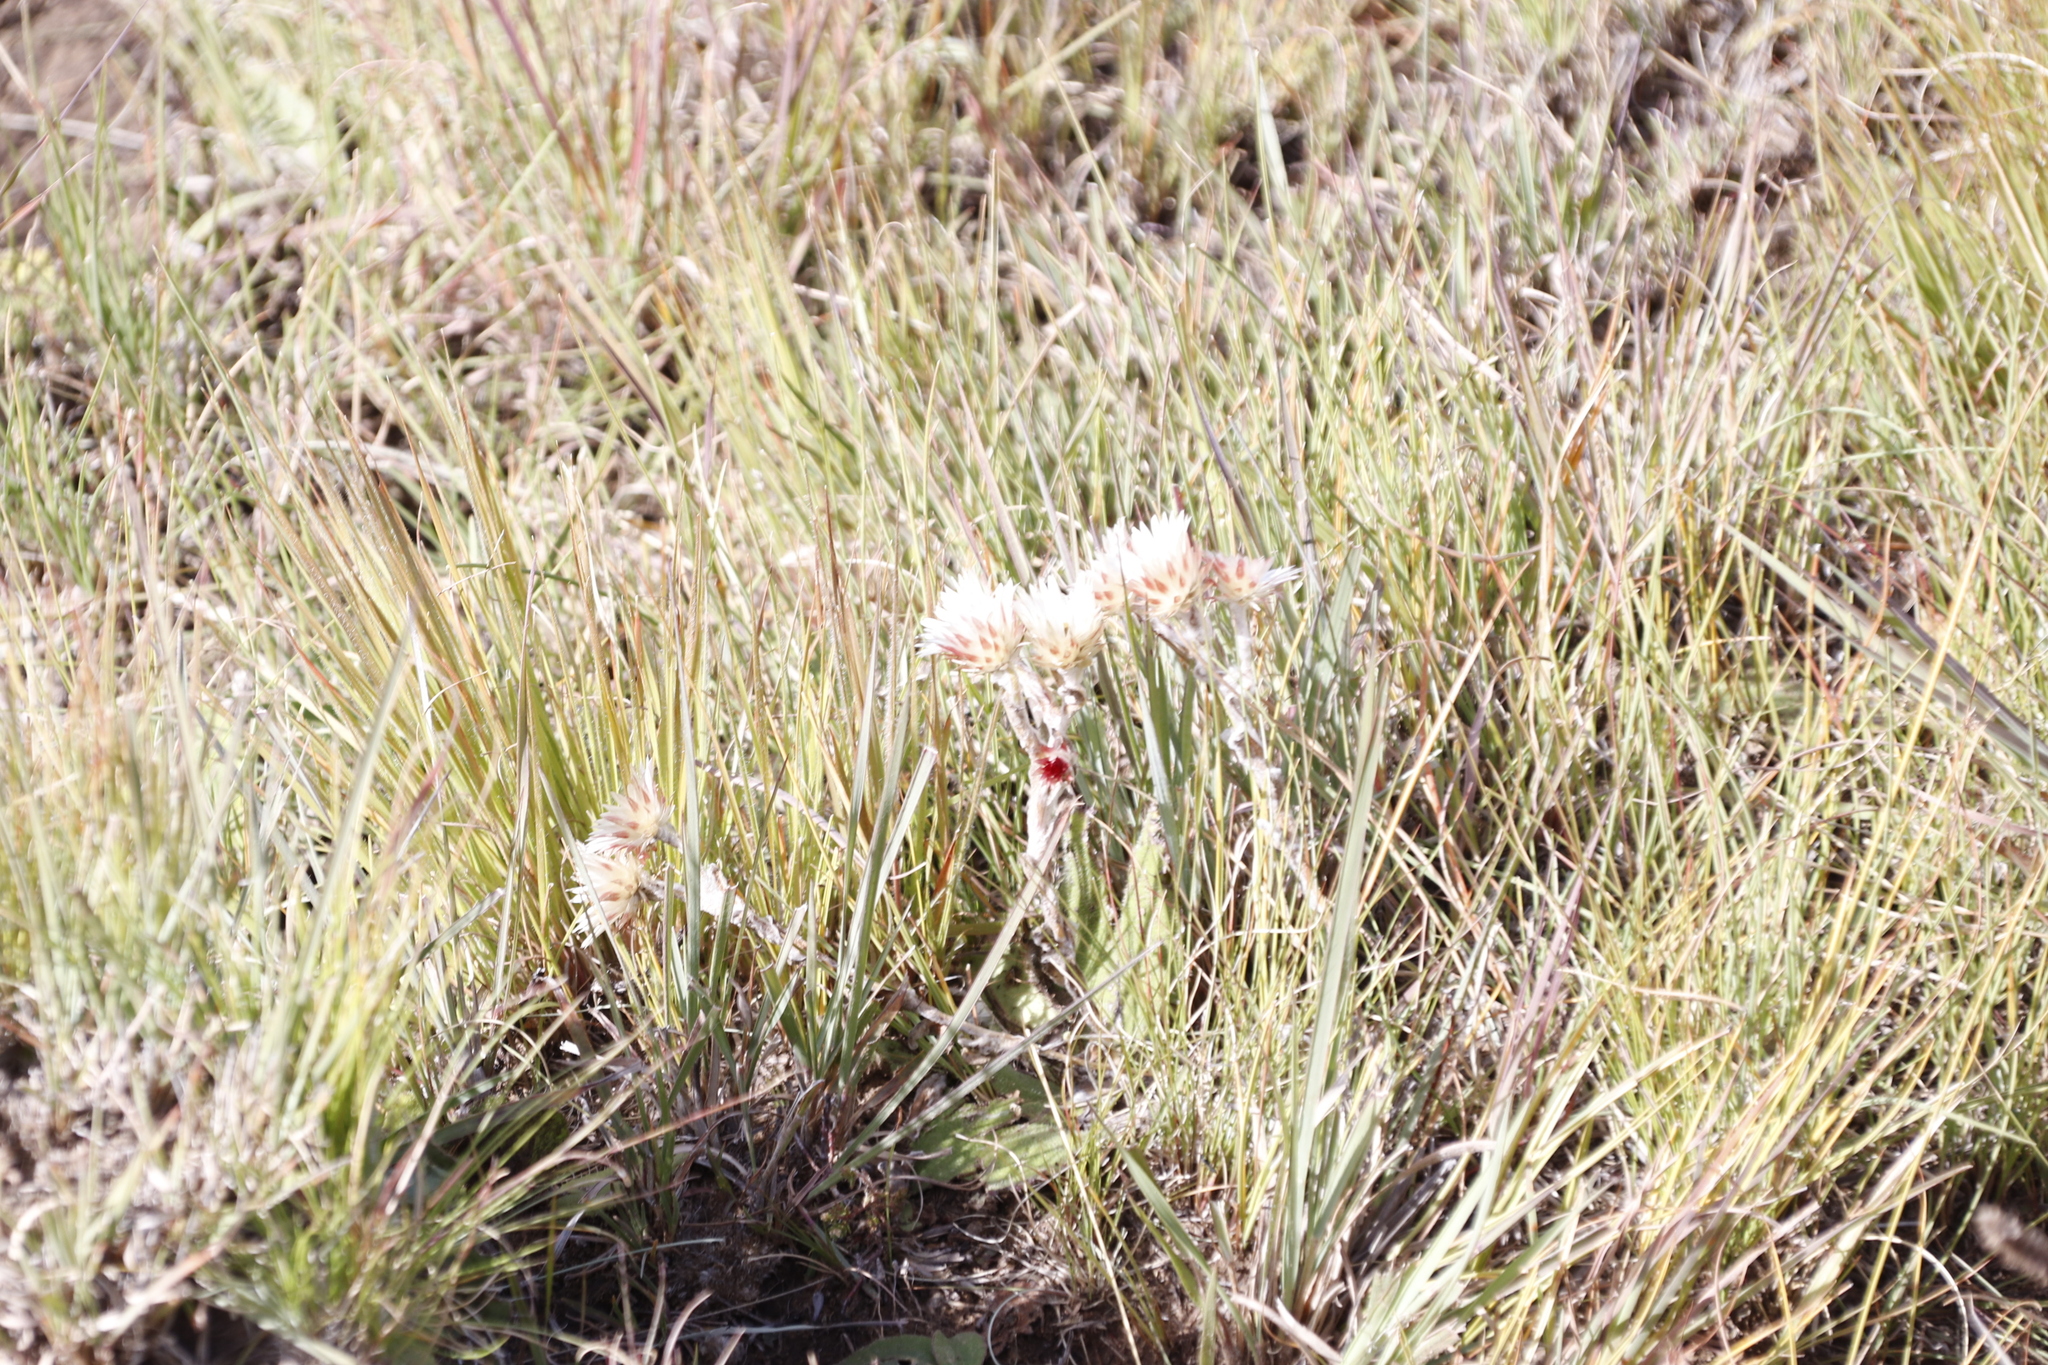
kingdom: Plantae
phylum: Tracheophyta
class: Magnoliopsida
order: Asterales
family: Asteraceae
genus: Helichrysum
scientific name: Helichrysum adenocarpum
